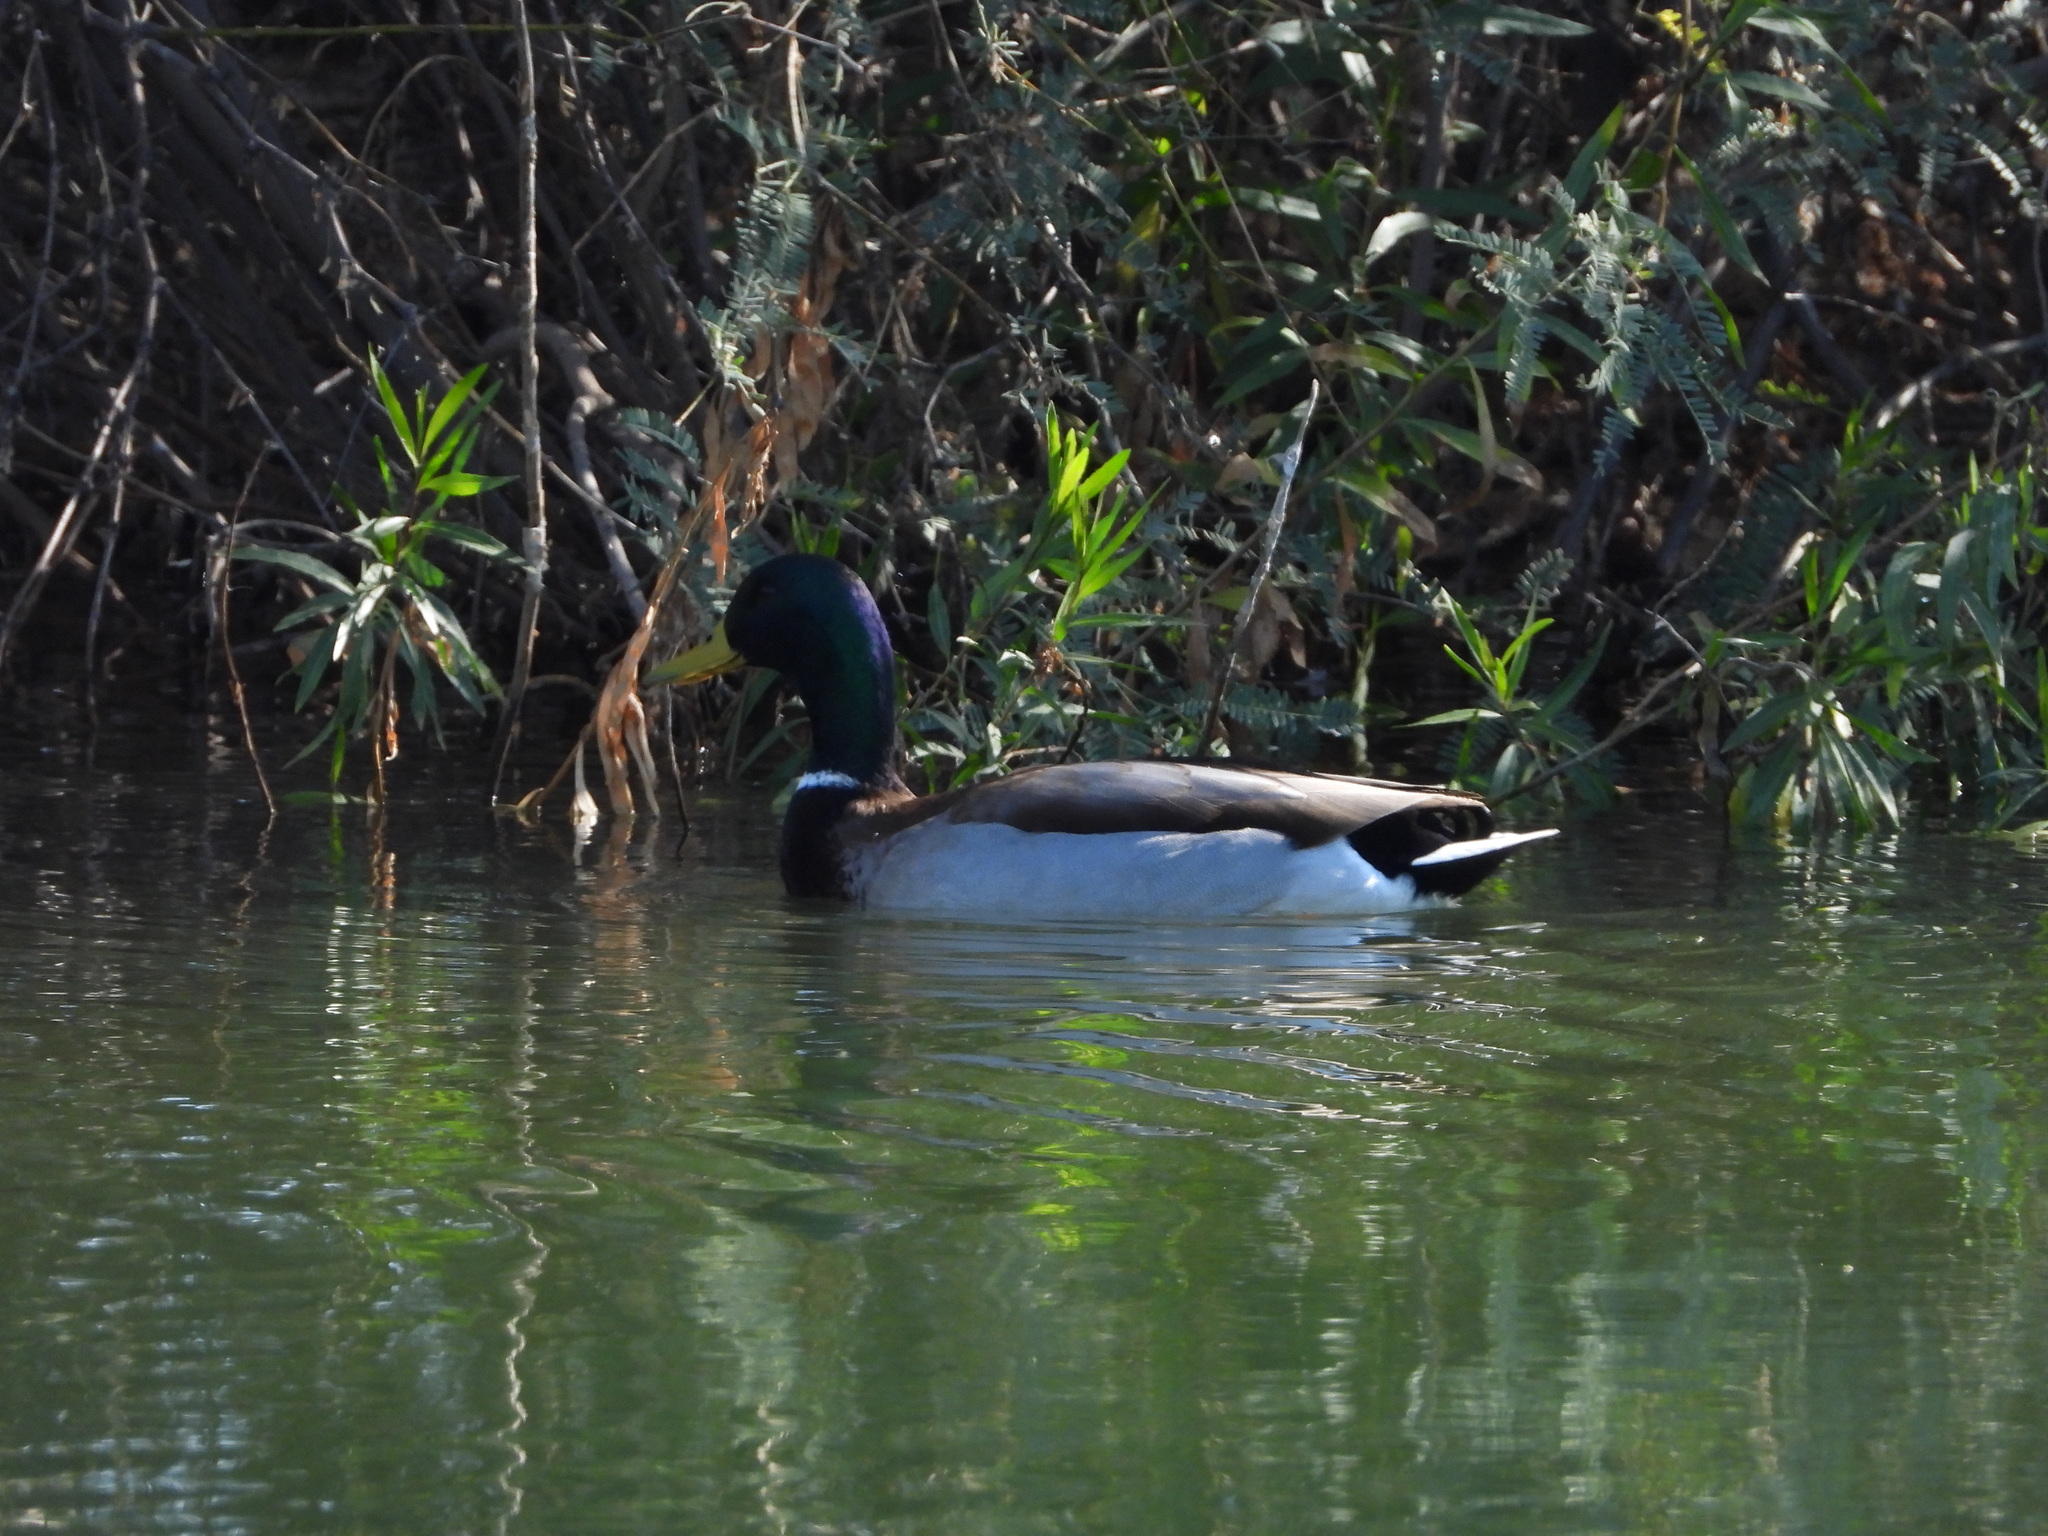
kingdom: Animalia
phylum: Chordata
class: Aves
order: Anseriformes
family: Anatidae
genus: Anas
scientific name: Anas platyrhynchos
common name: Mallard
